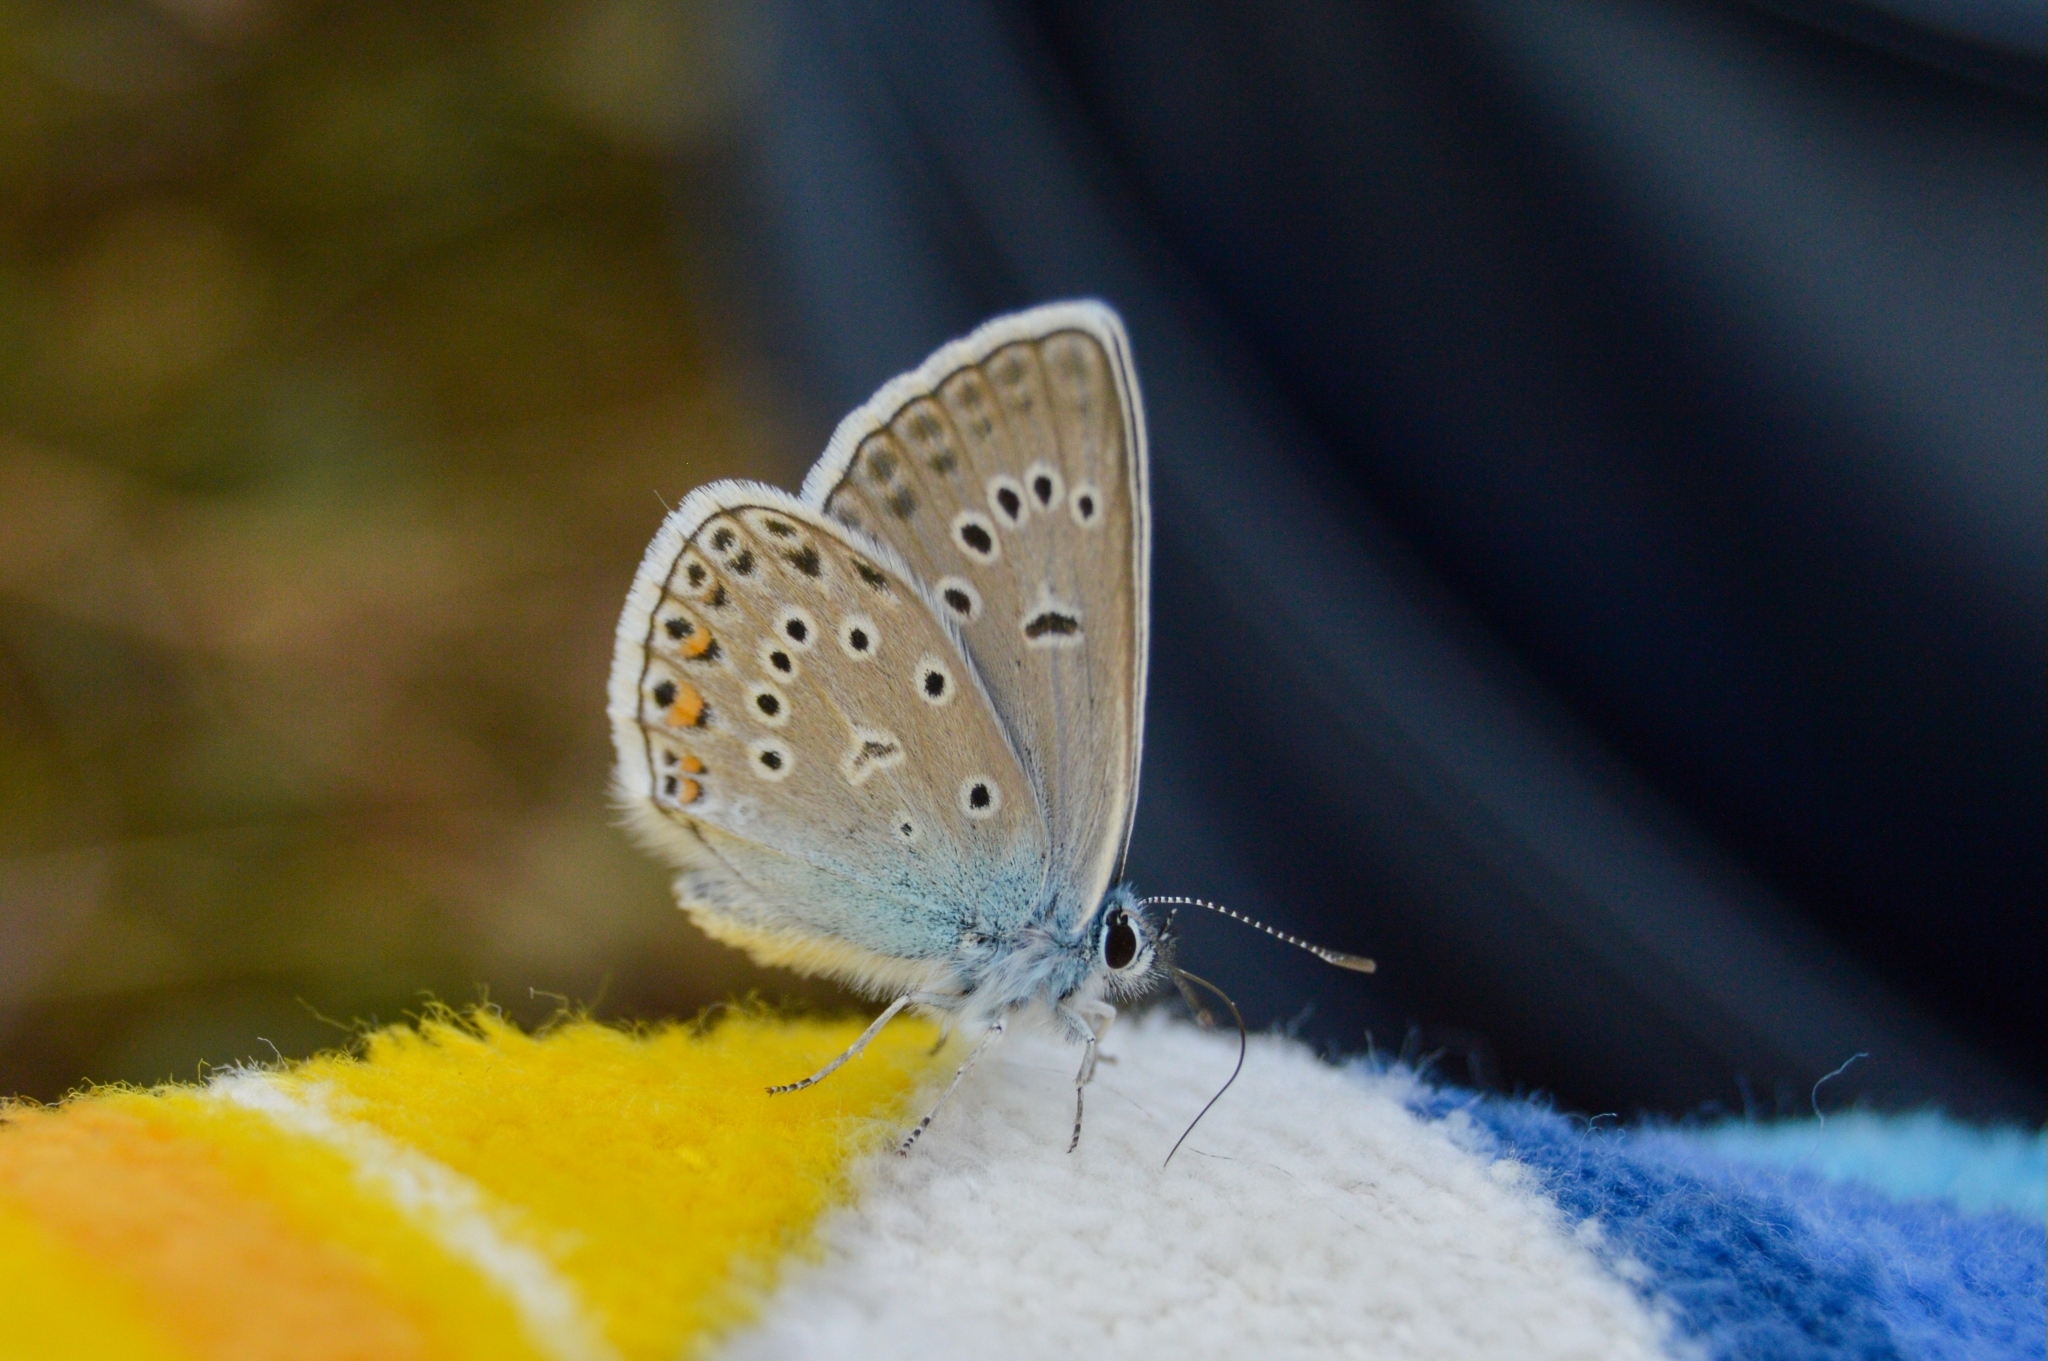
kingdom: Animalia
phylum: Arthropoda
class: Insecta
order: Lepidoptera
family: Lycaenidae
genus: Plebejus
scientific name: Plebejus amanda
